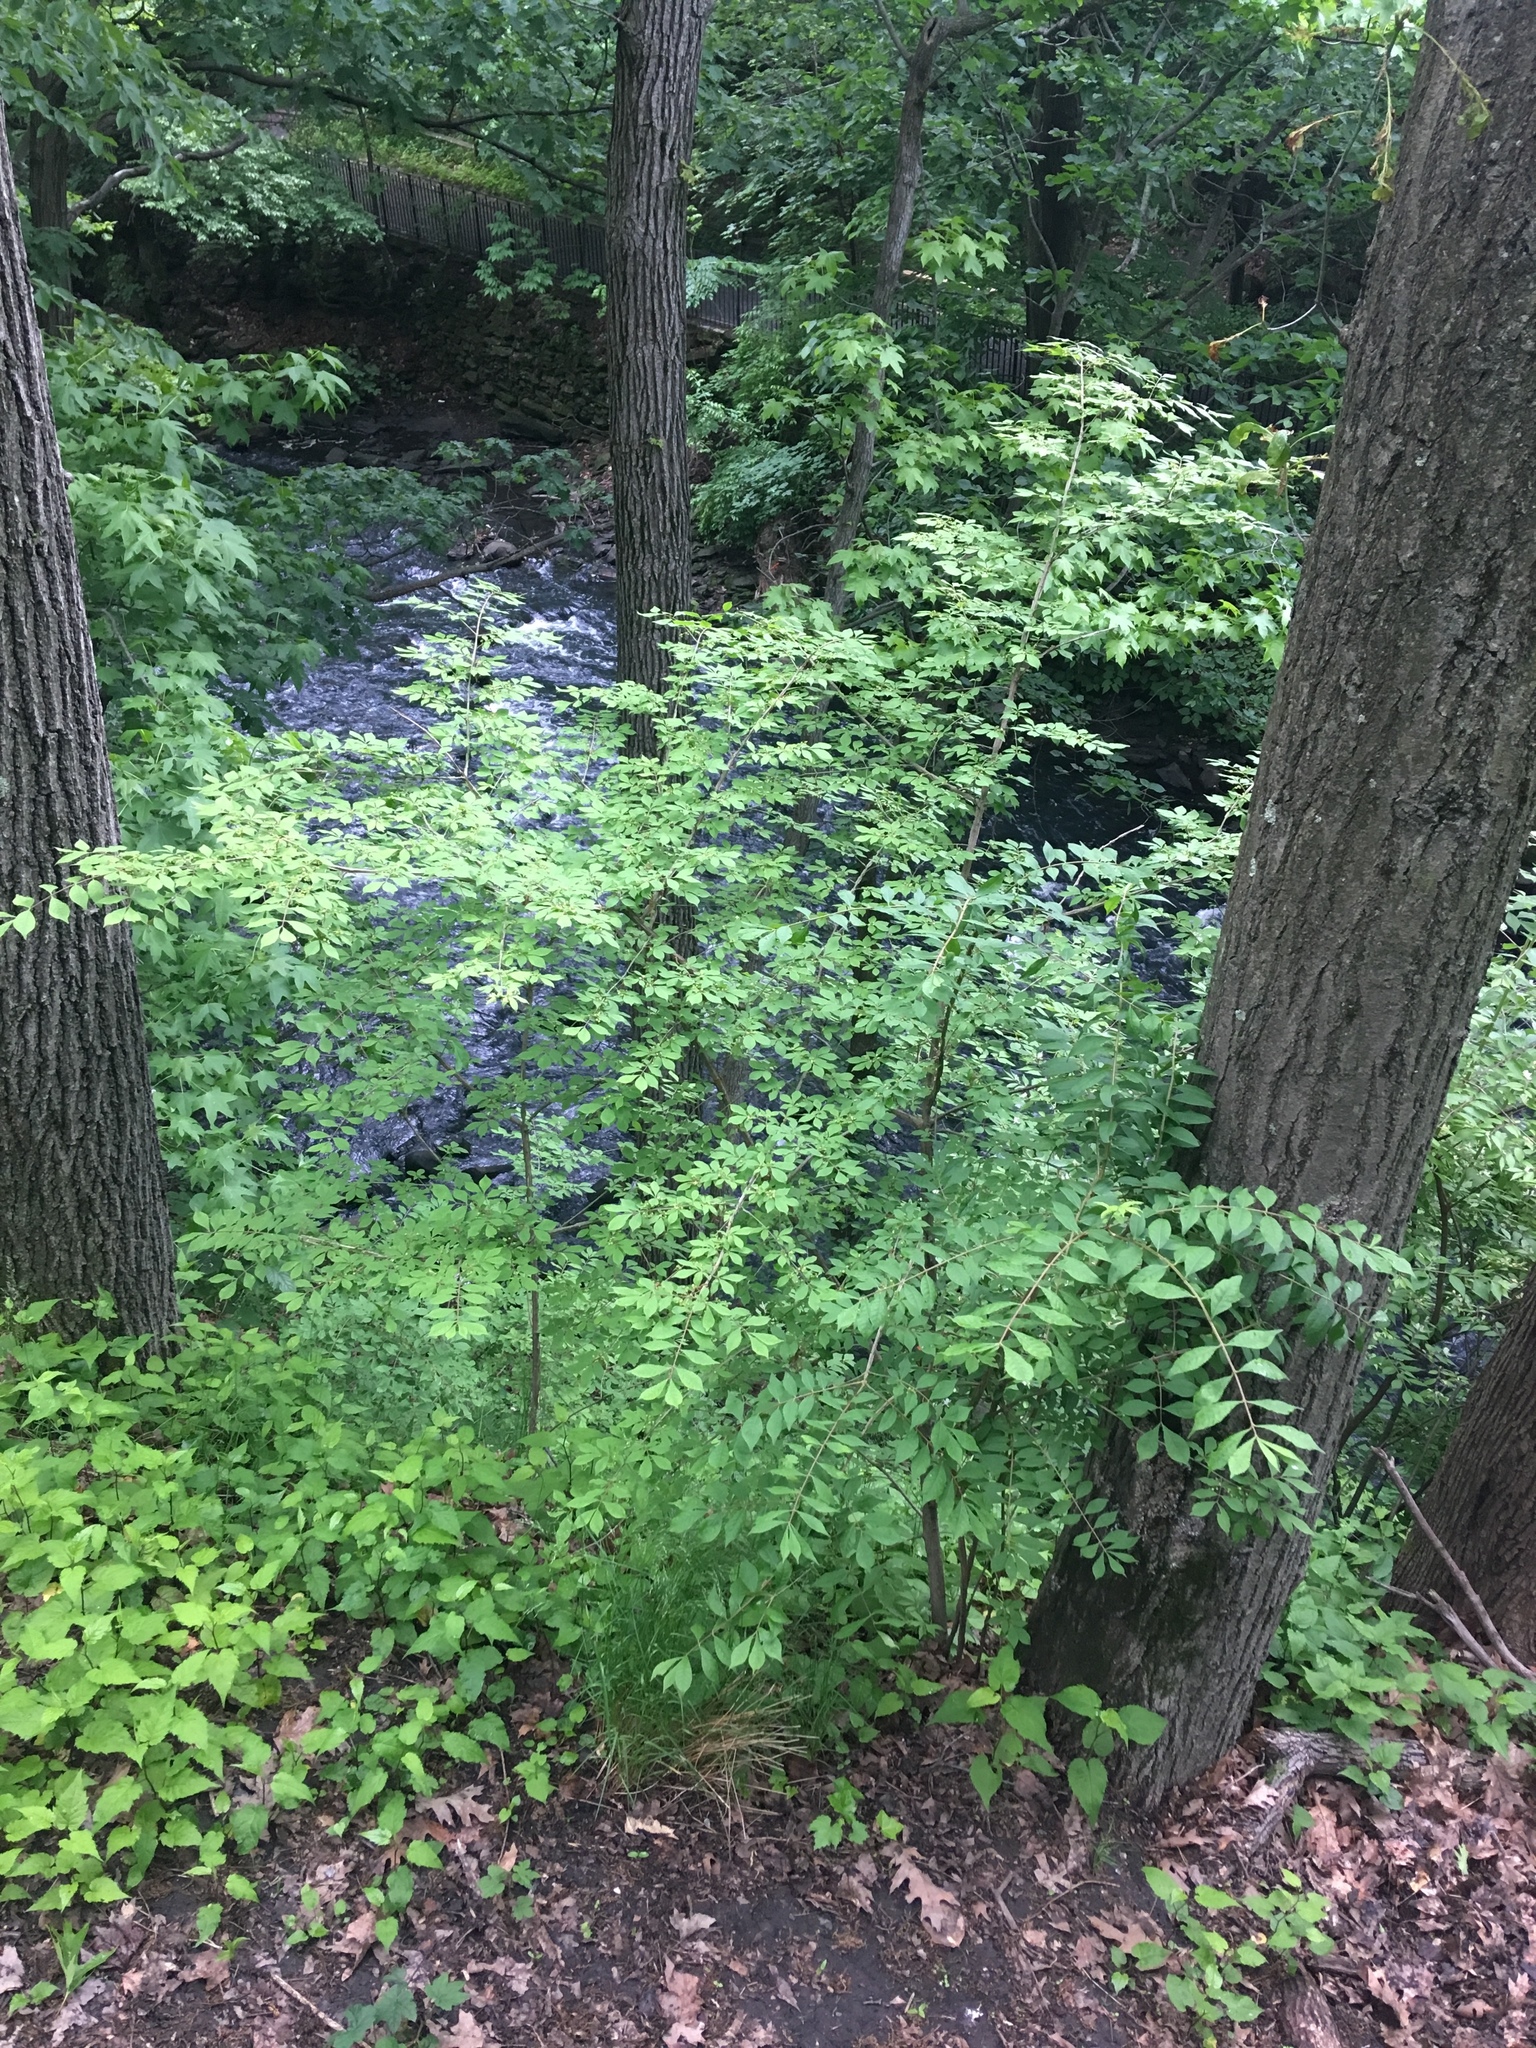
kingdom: Plantae
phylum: Tracheophyta
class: Magnoliopsida
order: Celastrales
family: Celastraceae
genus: Euonymus
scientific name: Euonymus alatus
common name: Winged euonymus
